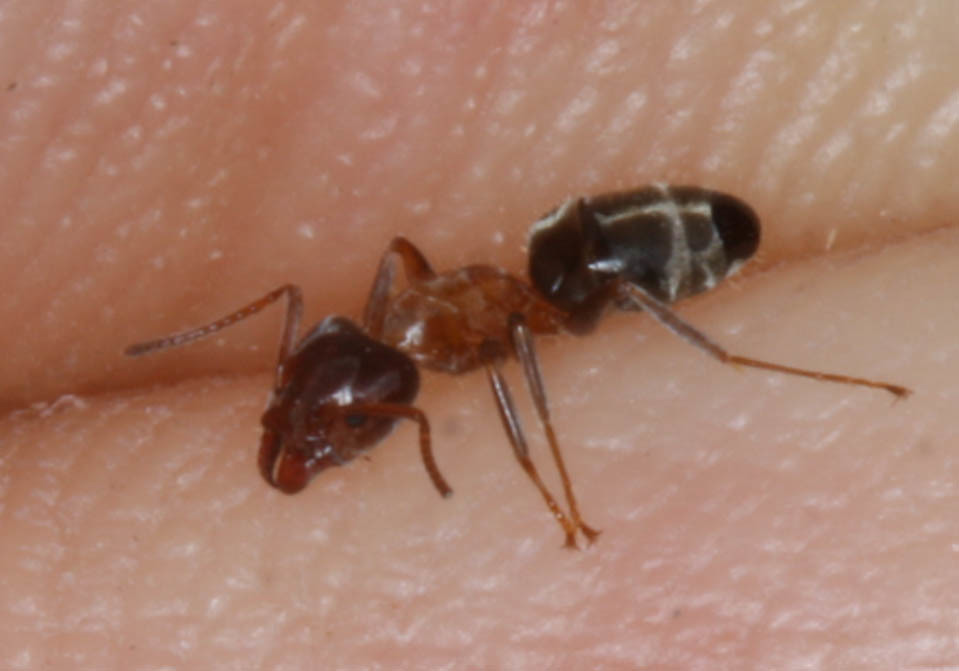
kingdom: Animalia
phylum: Arthropoda
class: Insecta
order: Hymenoptera
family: Formicidae
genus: Liometopum
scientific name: Liometopum occidentale
